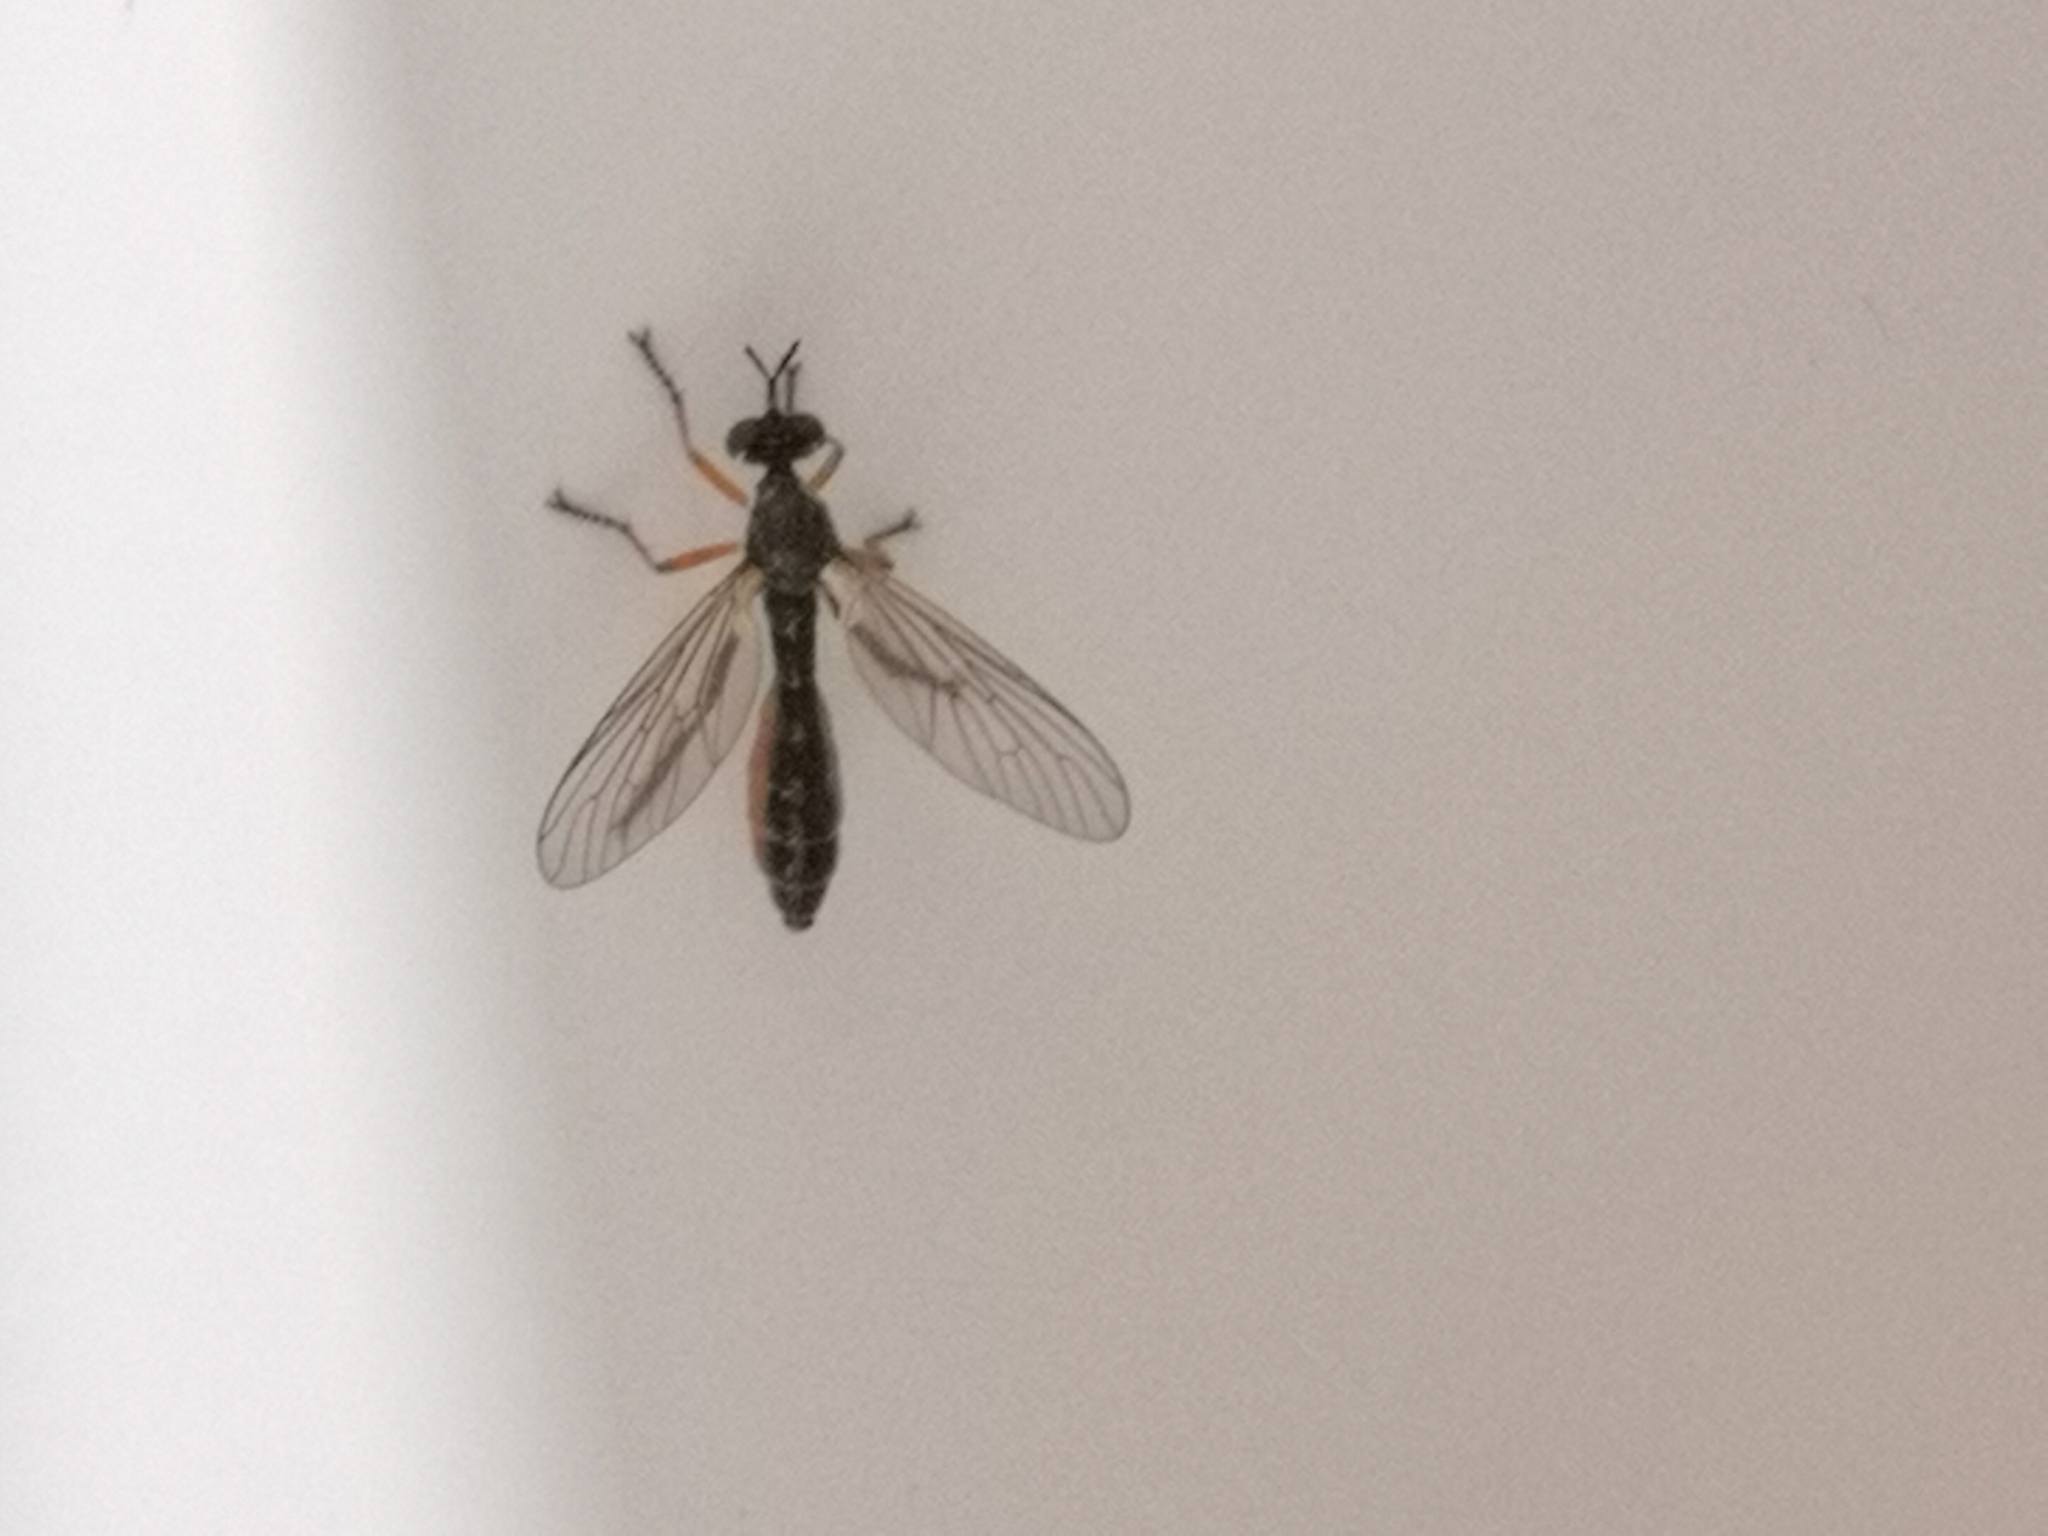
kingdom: Animalia
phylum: Arthropoda
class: Insecta
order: Diptera
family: Asilidae
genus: Dioctria
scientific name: Dioctria hyalipennis
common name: Stripe-legged robberfly
